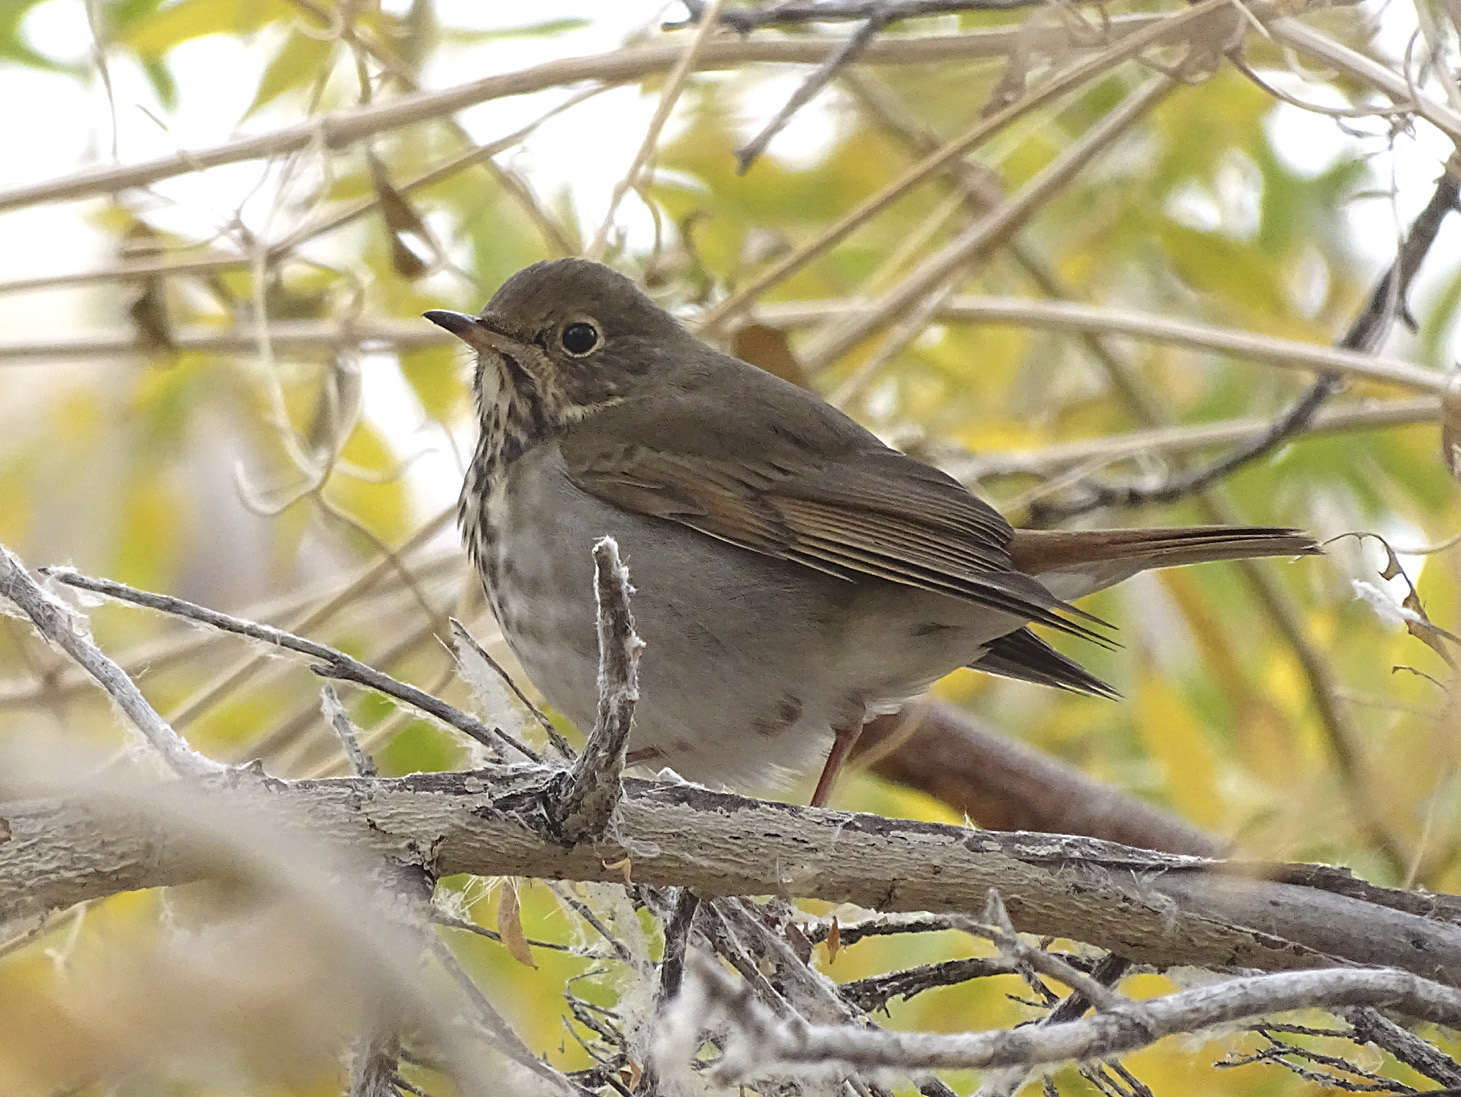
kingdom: Animalia
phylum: Chordata
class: Aves
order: Passeriformes
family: Turdidae
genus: Catharus
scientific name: Catharus guttatus
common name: Hermit thrush
